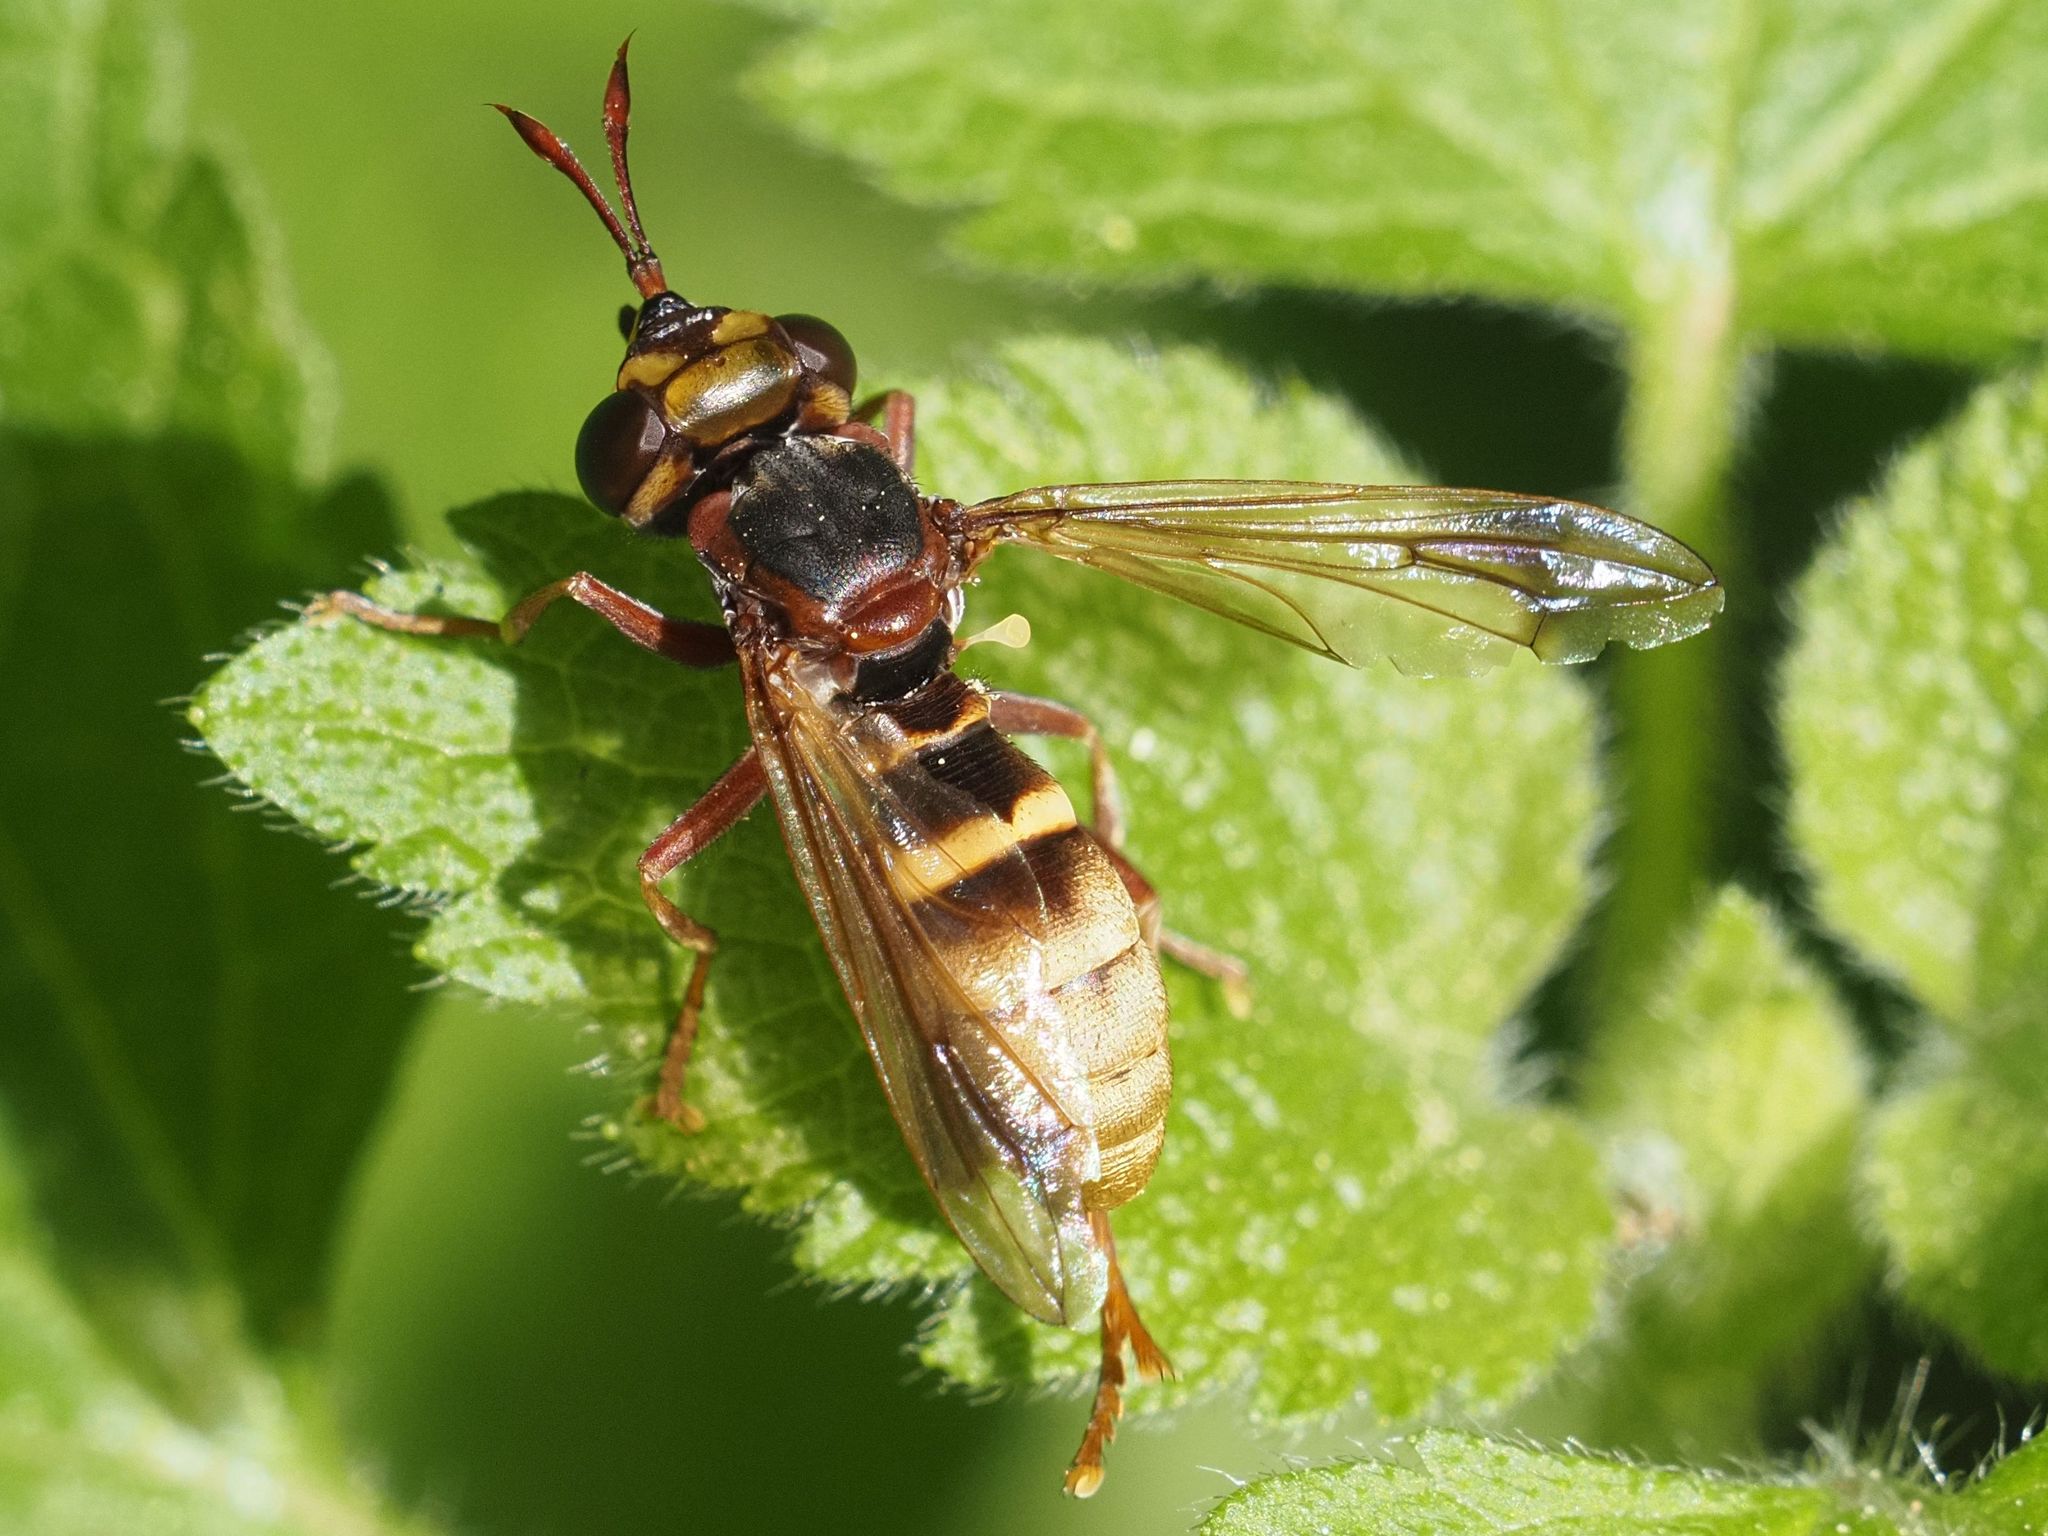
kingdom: Animalia
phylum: Arthropoda
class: Insecta
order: Diptera
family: Conopidae
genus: Conops
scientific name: Conops vesicularis
